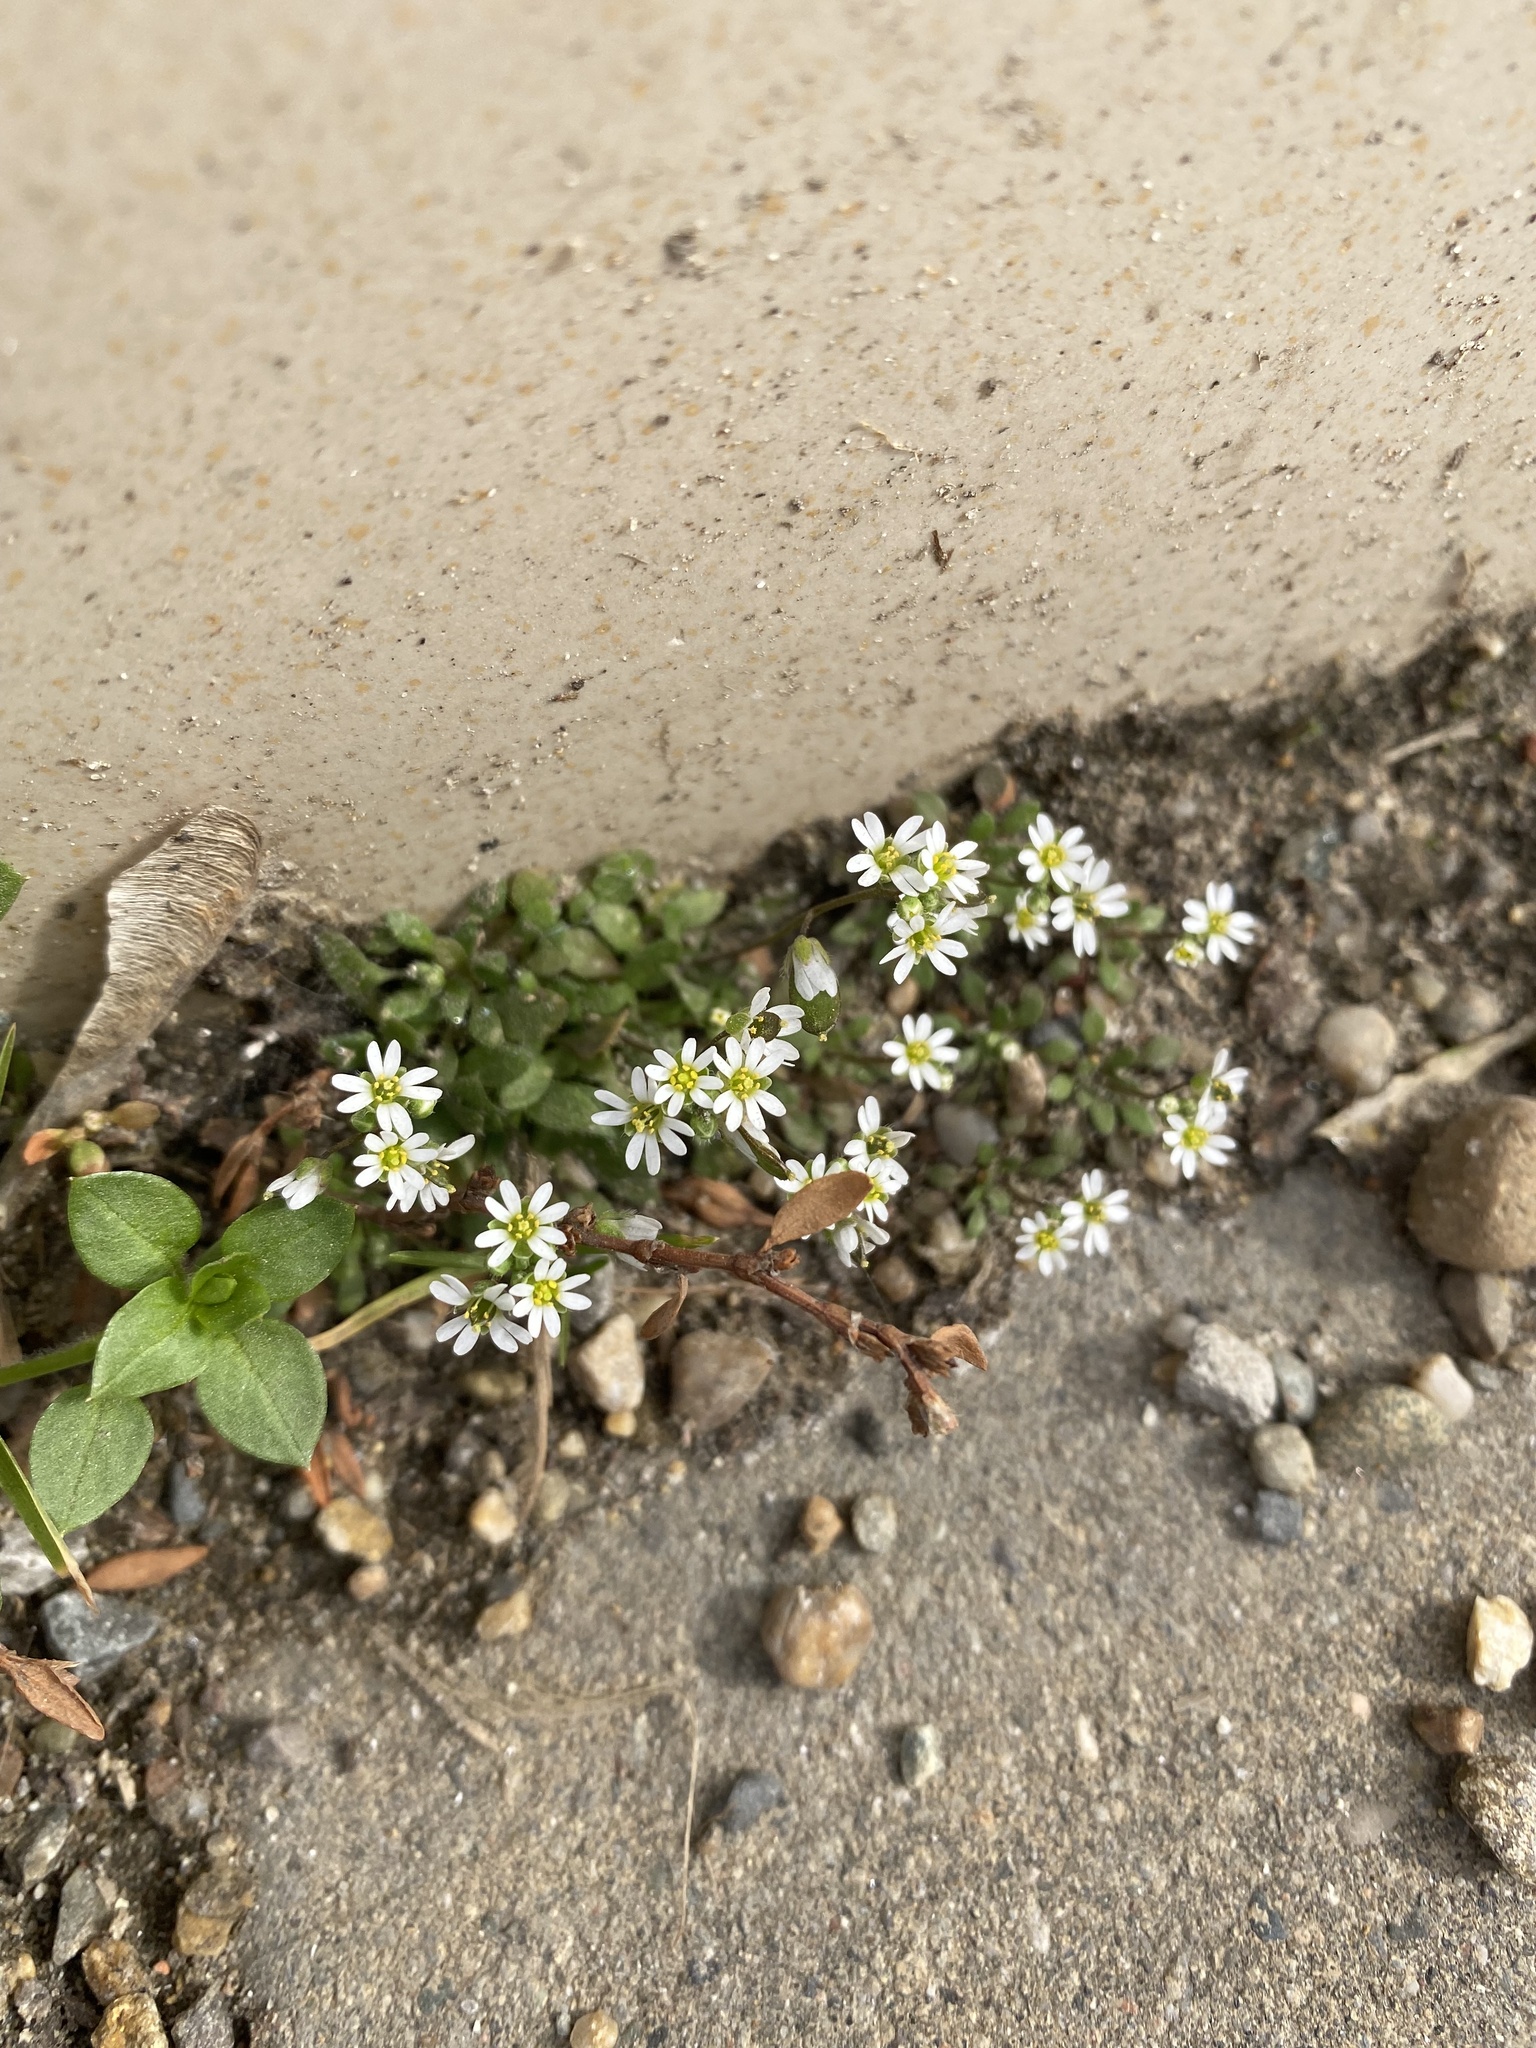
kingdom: Plantae
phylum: Tracheophyta
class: Magnoliopsida
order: Brassicales
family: Brassicaceae
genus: Draba
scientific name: Draba verna
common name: Spring draba
